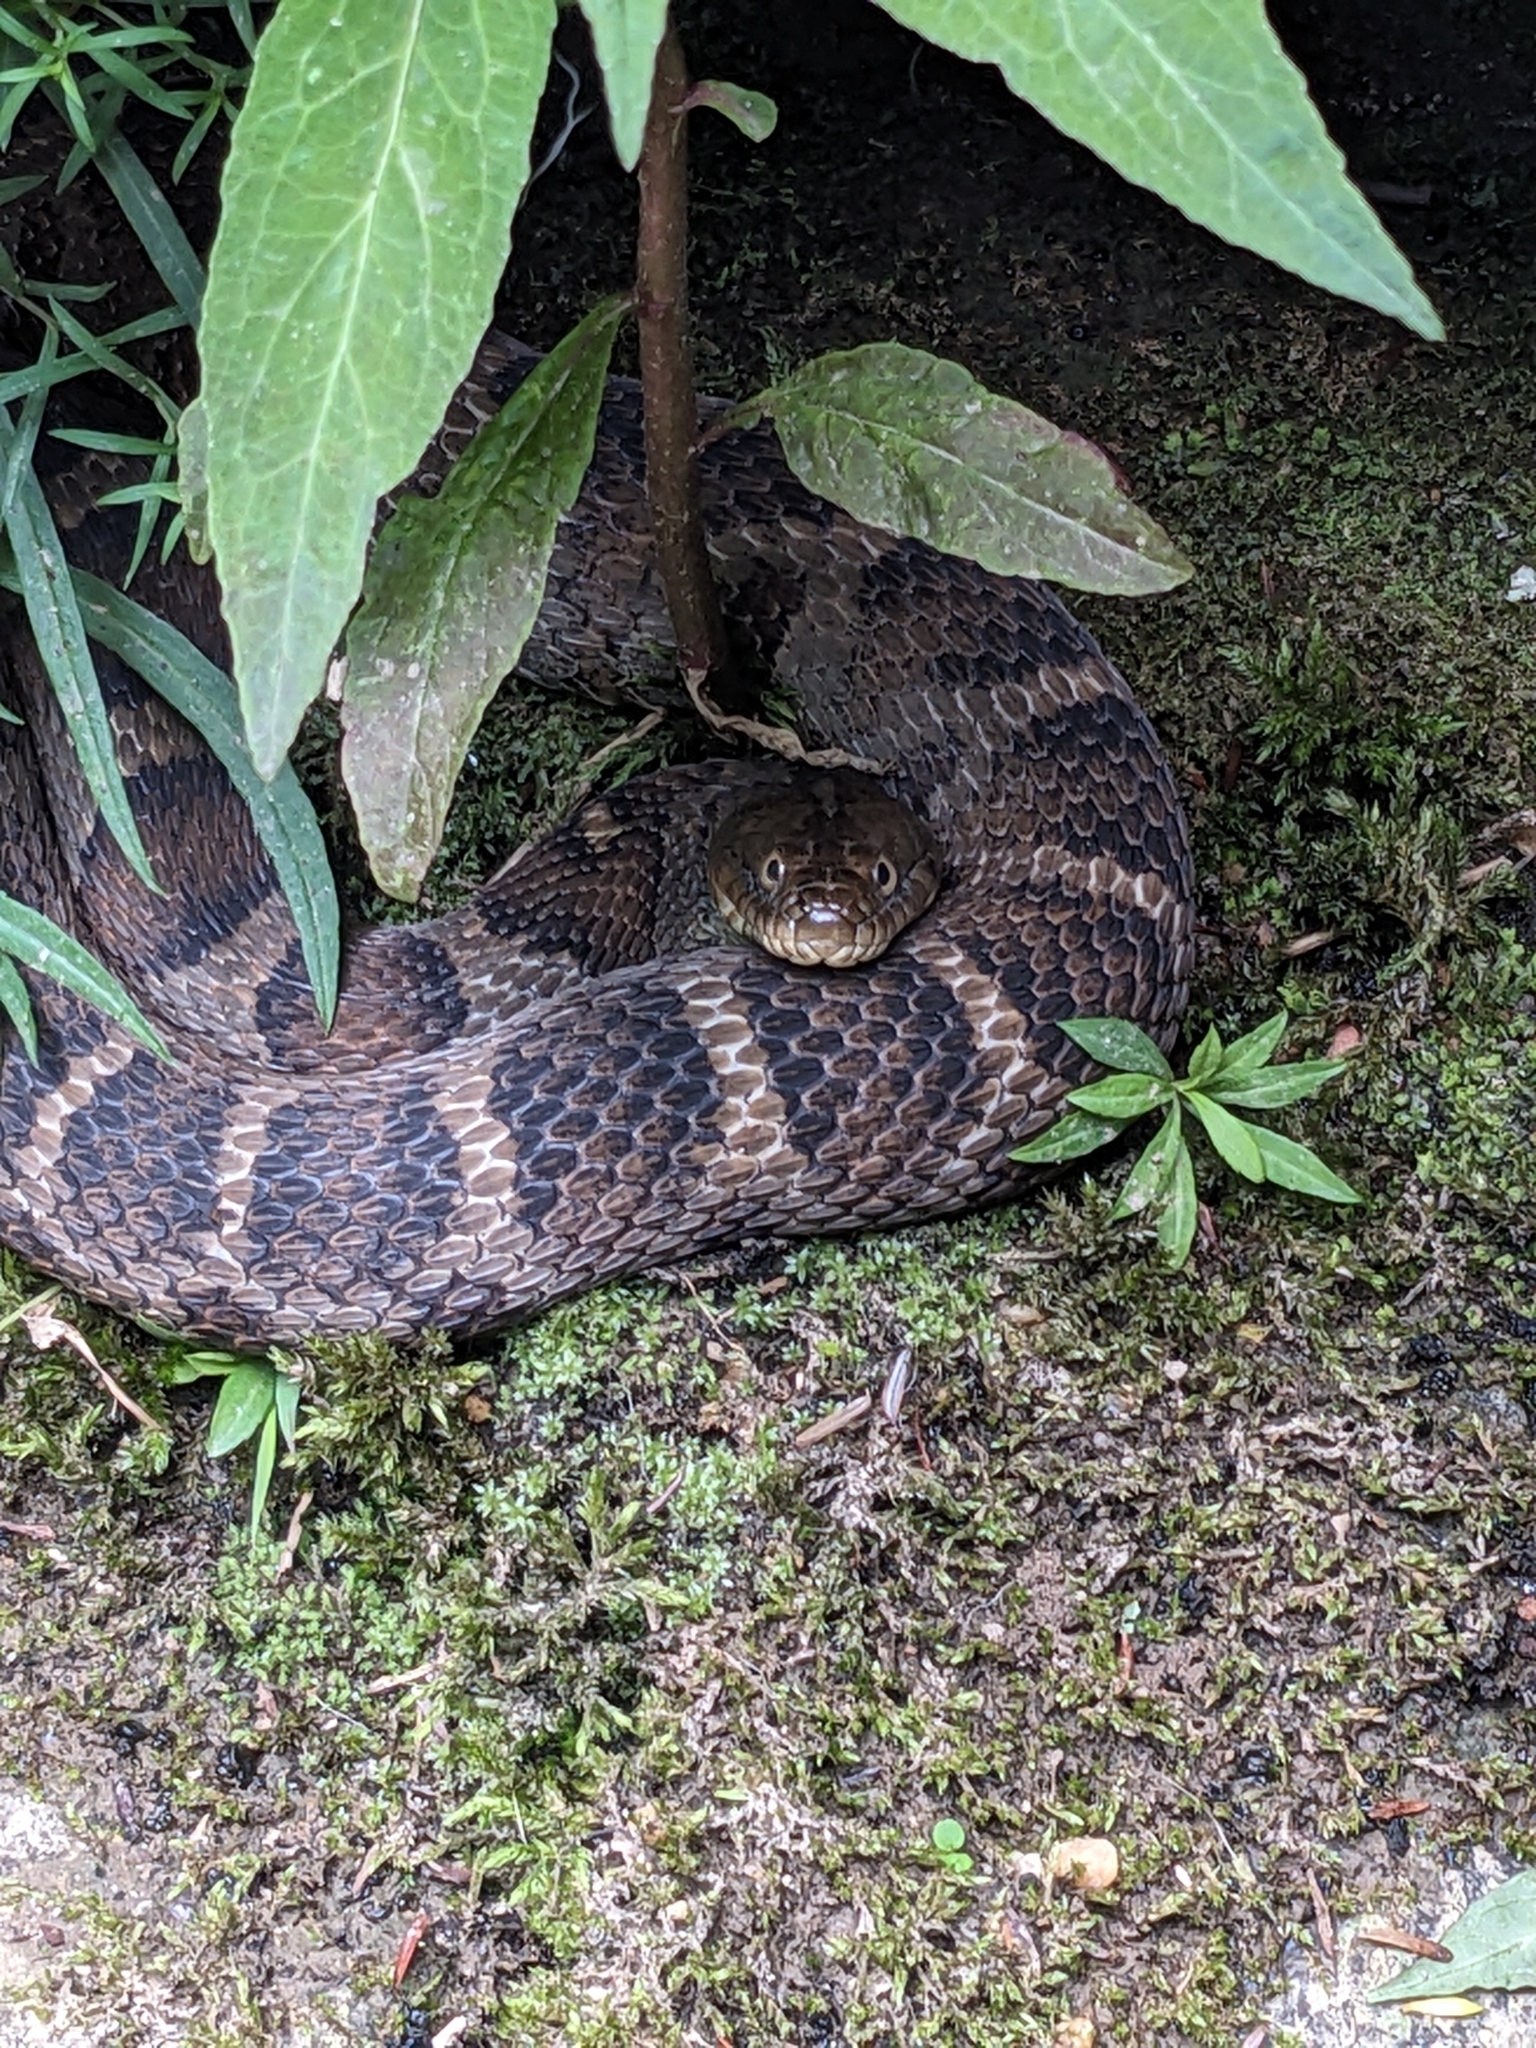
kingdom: Animalia
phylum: Chordata
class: Squamata
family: Colubridae
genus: Nerodia
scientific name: Nerodia sipedon
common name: Northern water snake
